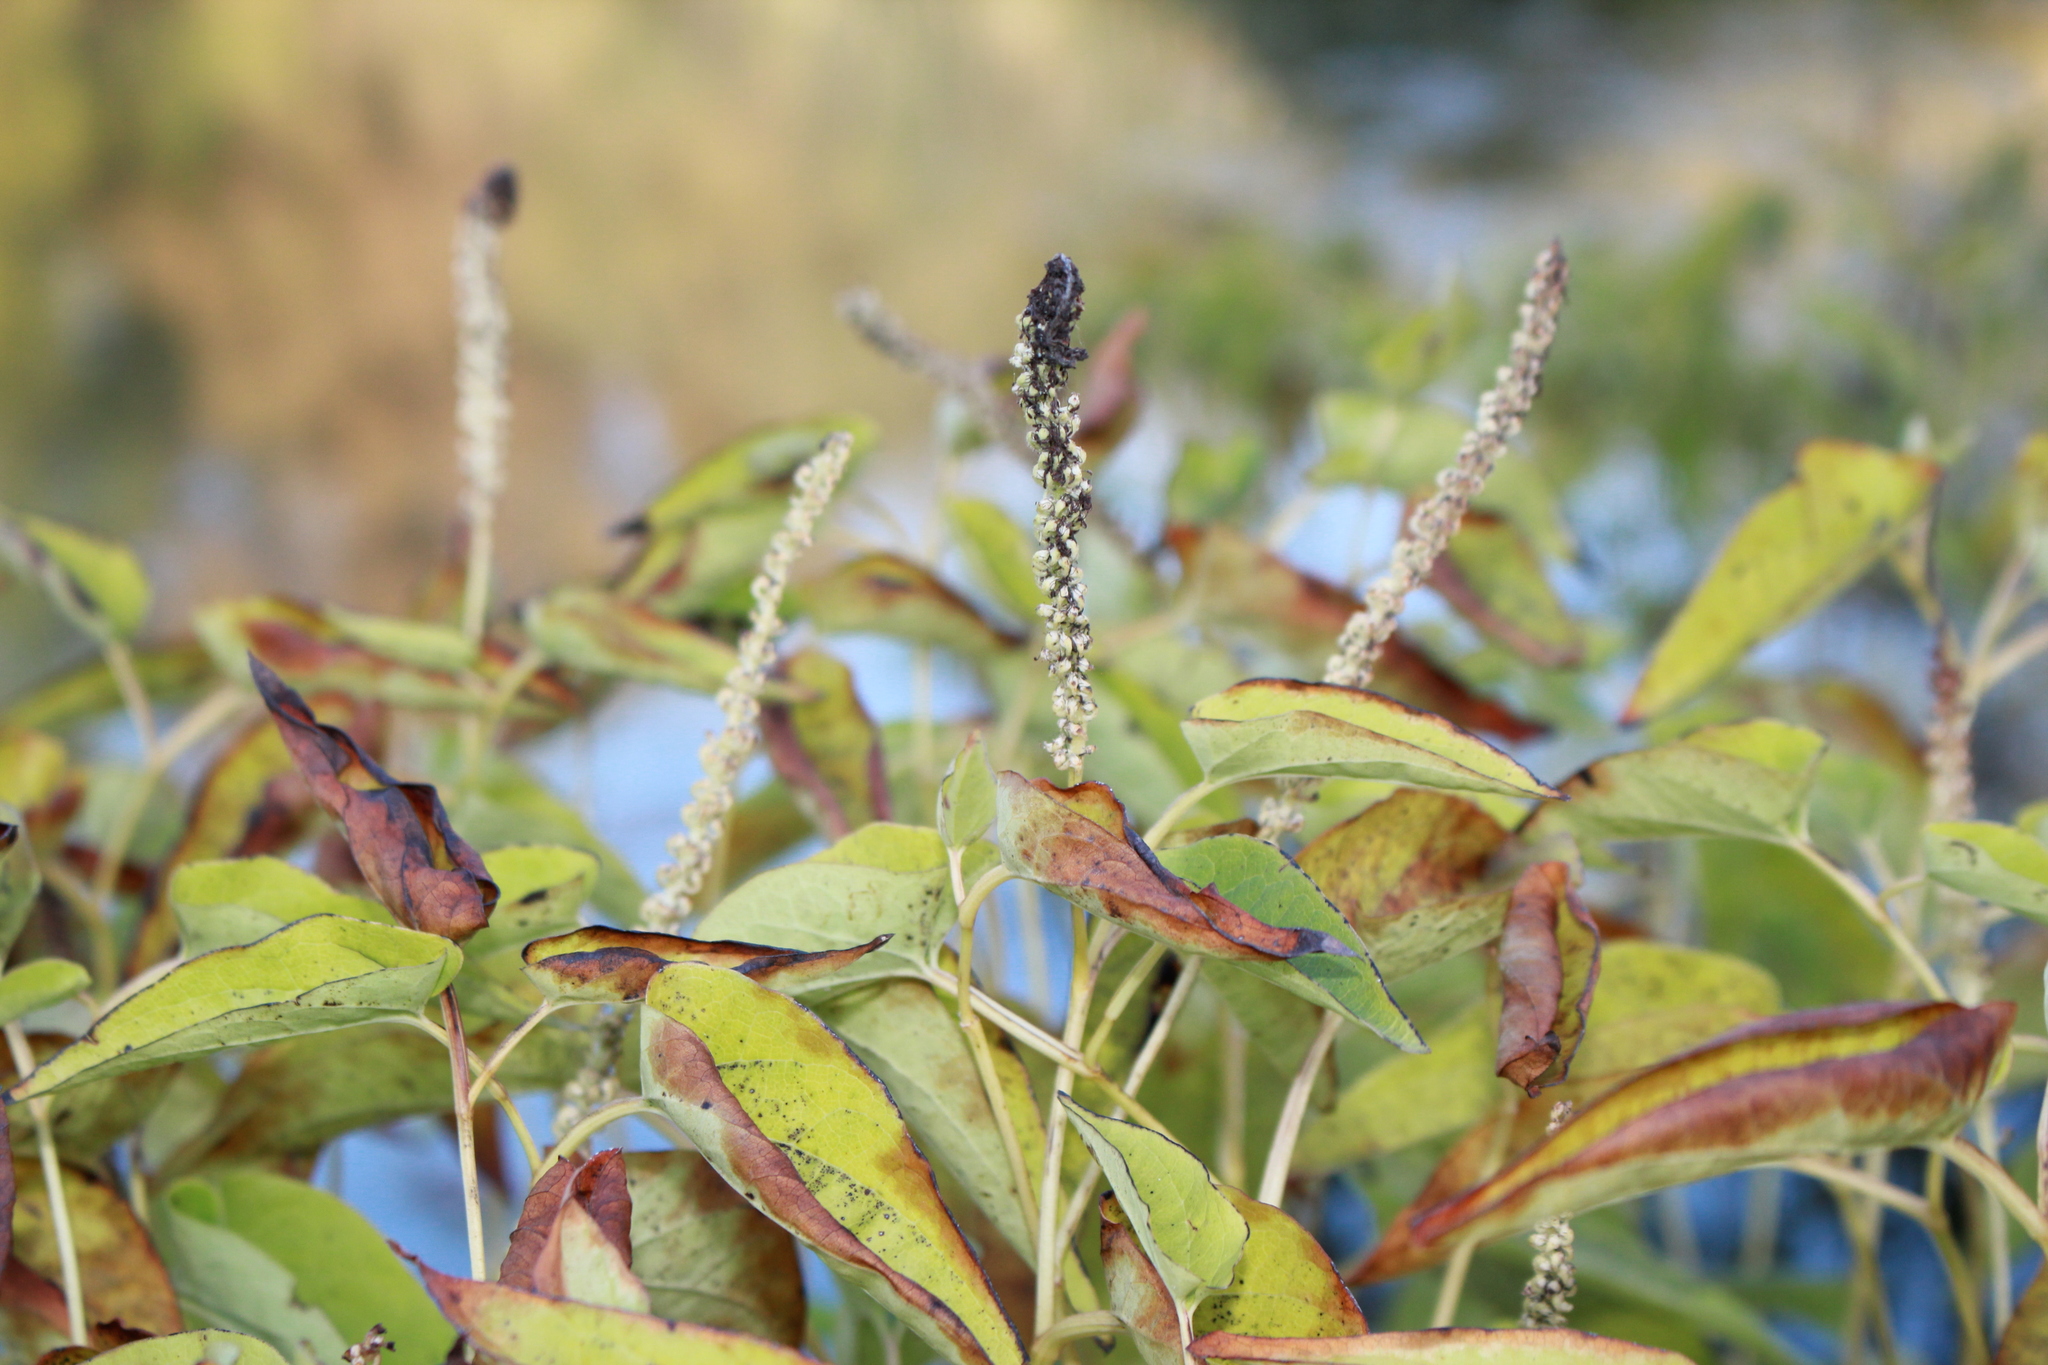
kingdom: Plantae
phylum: Tracheophyta
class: Magnoliopsida
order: Piperales
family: Saururaceae
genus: Saururus
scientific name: Saururus cernuus
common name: Lizard's-tail
